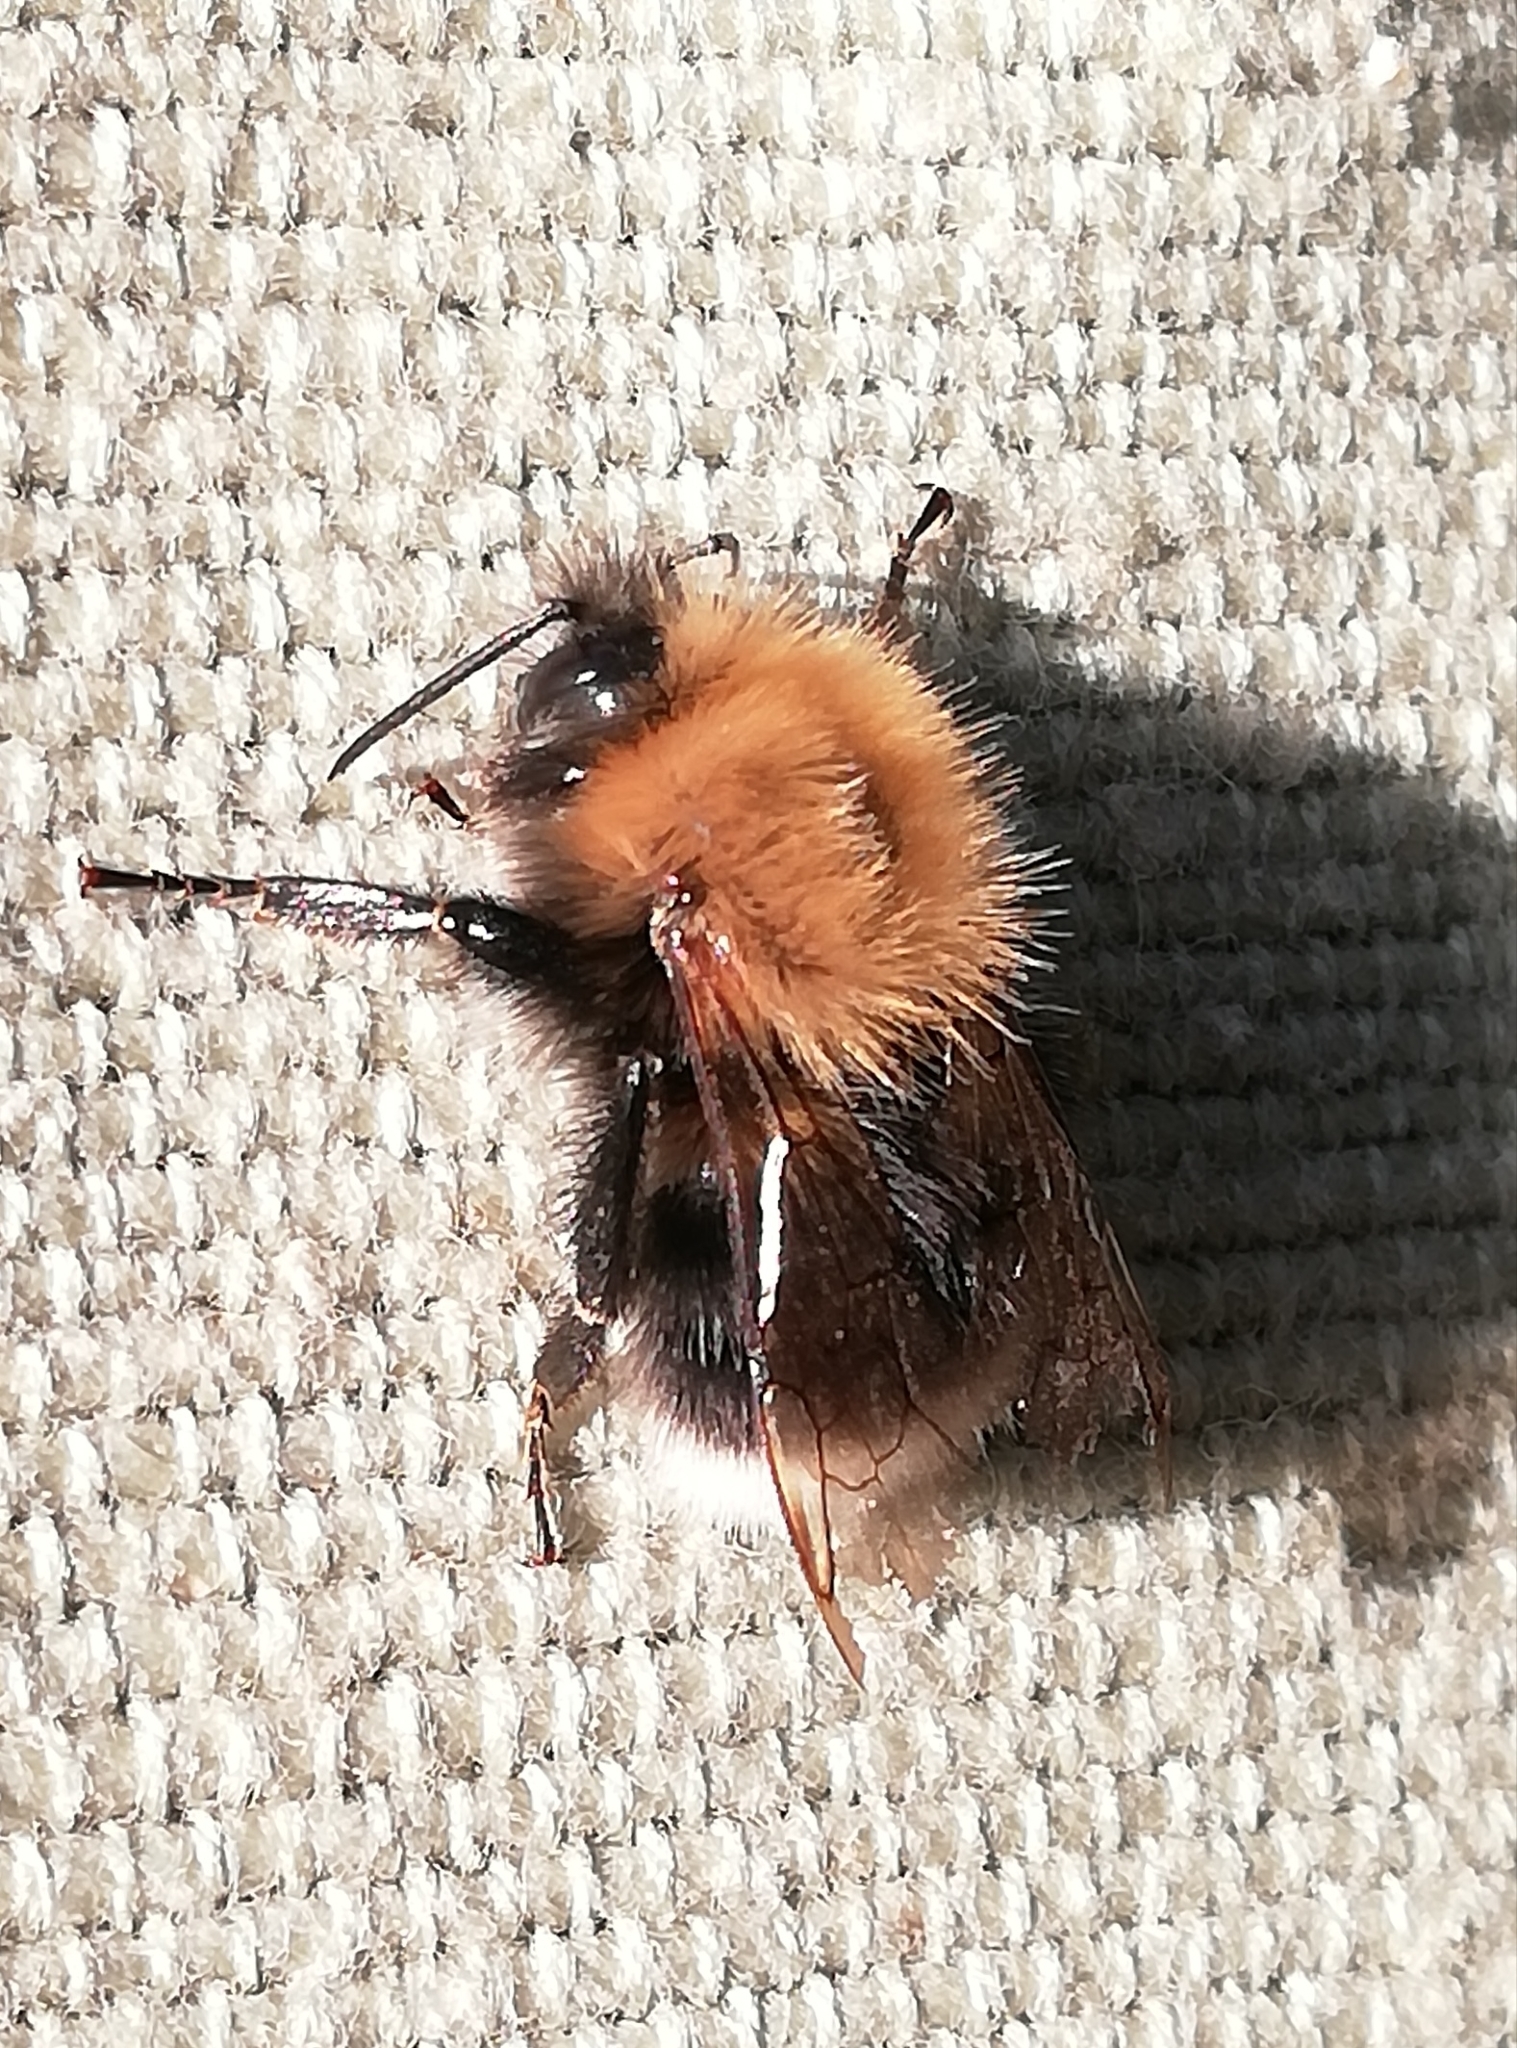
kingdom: Animalia
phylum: Arthropoda
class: Insecta
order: Hymenoptera
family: Apidae
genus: Bombus
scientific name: Bombus hypnorum
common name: New garden bumblebee
